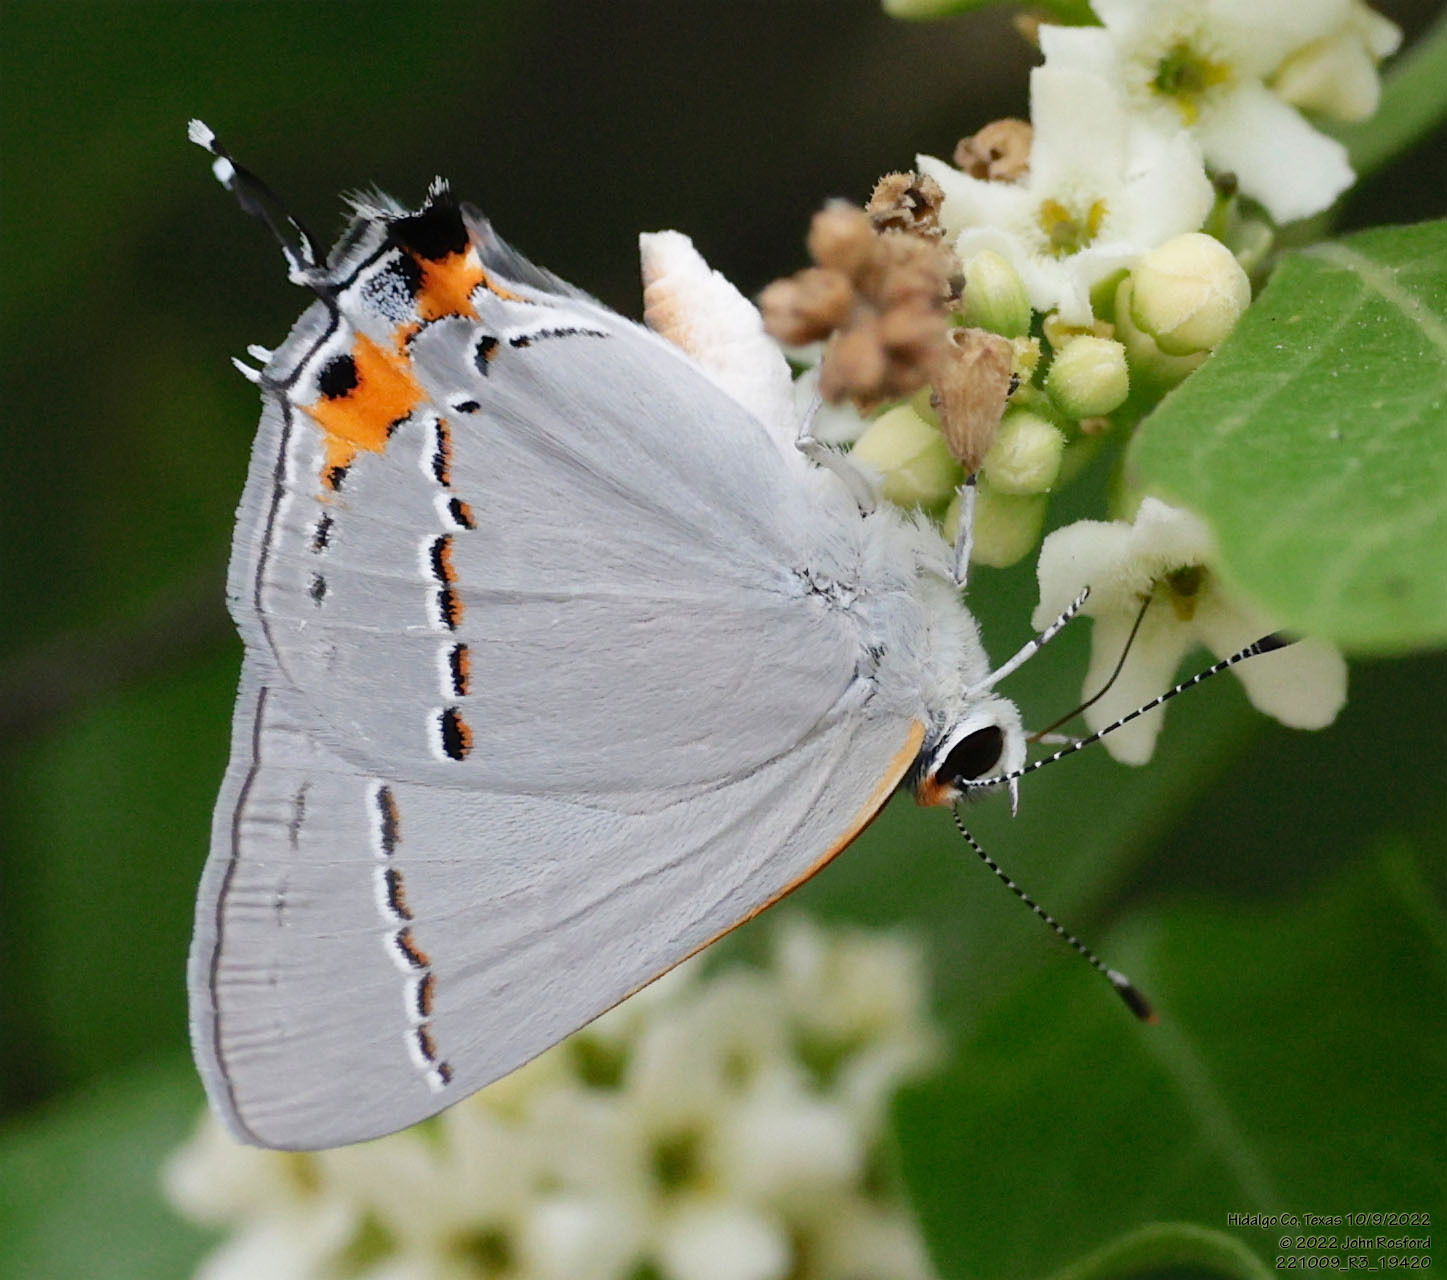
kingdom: Animalia
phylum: Arthropoda
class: Insecta
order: Lepidoptera
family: Lycaenidae
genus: Strymon
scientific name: Strymon melinus
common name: Gray hairstreak
